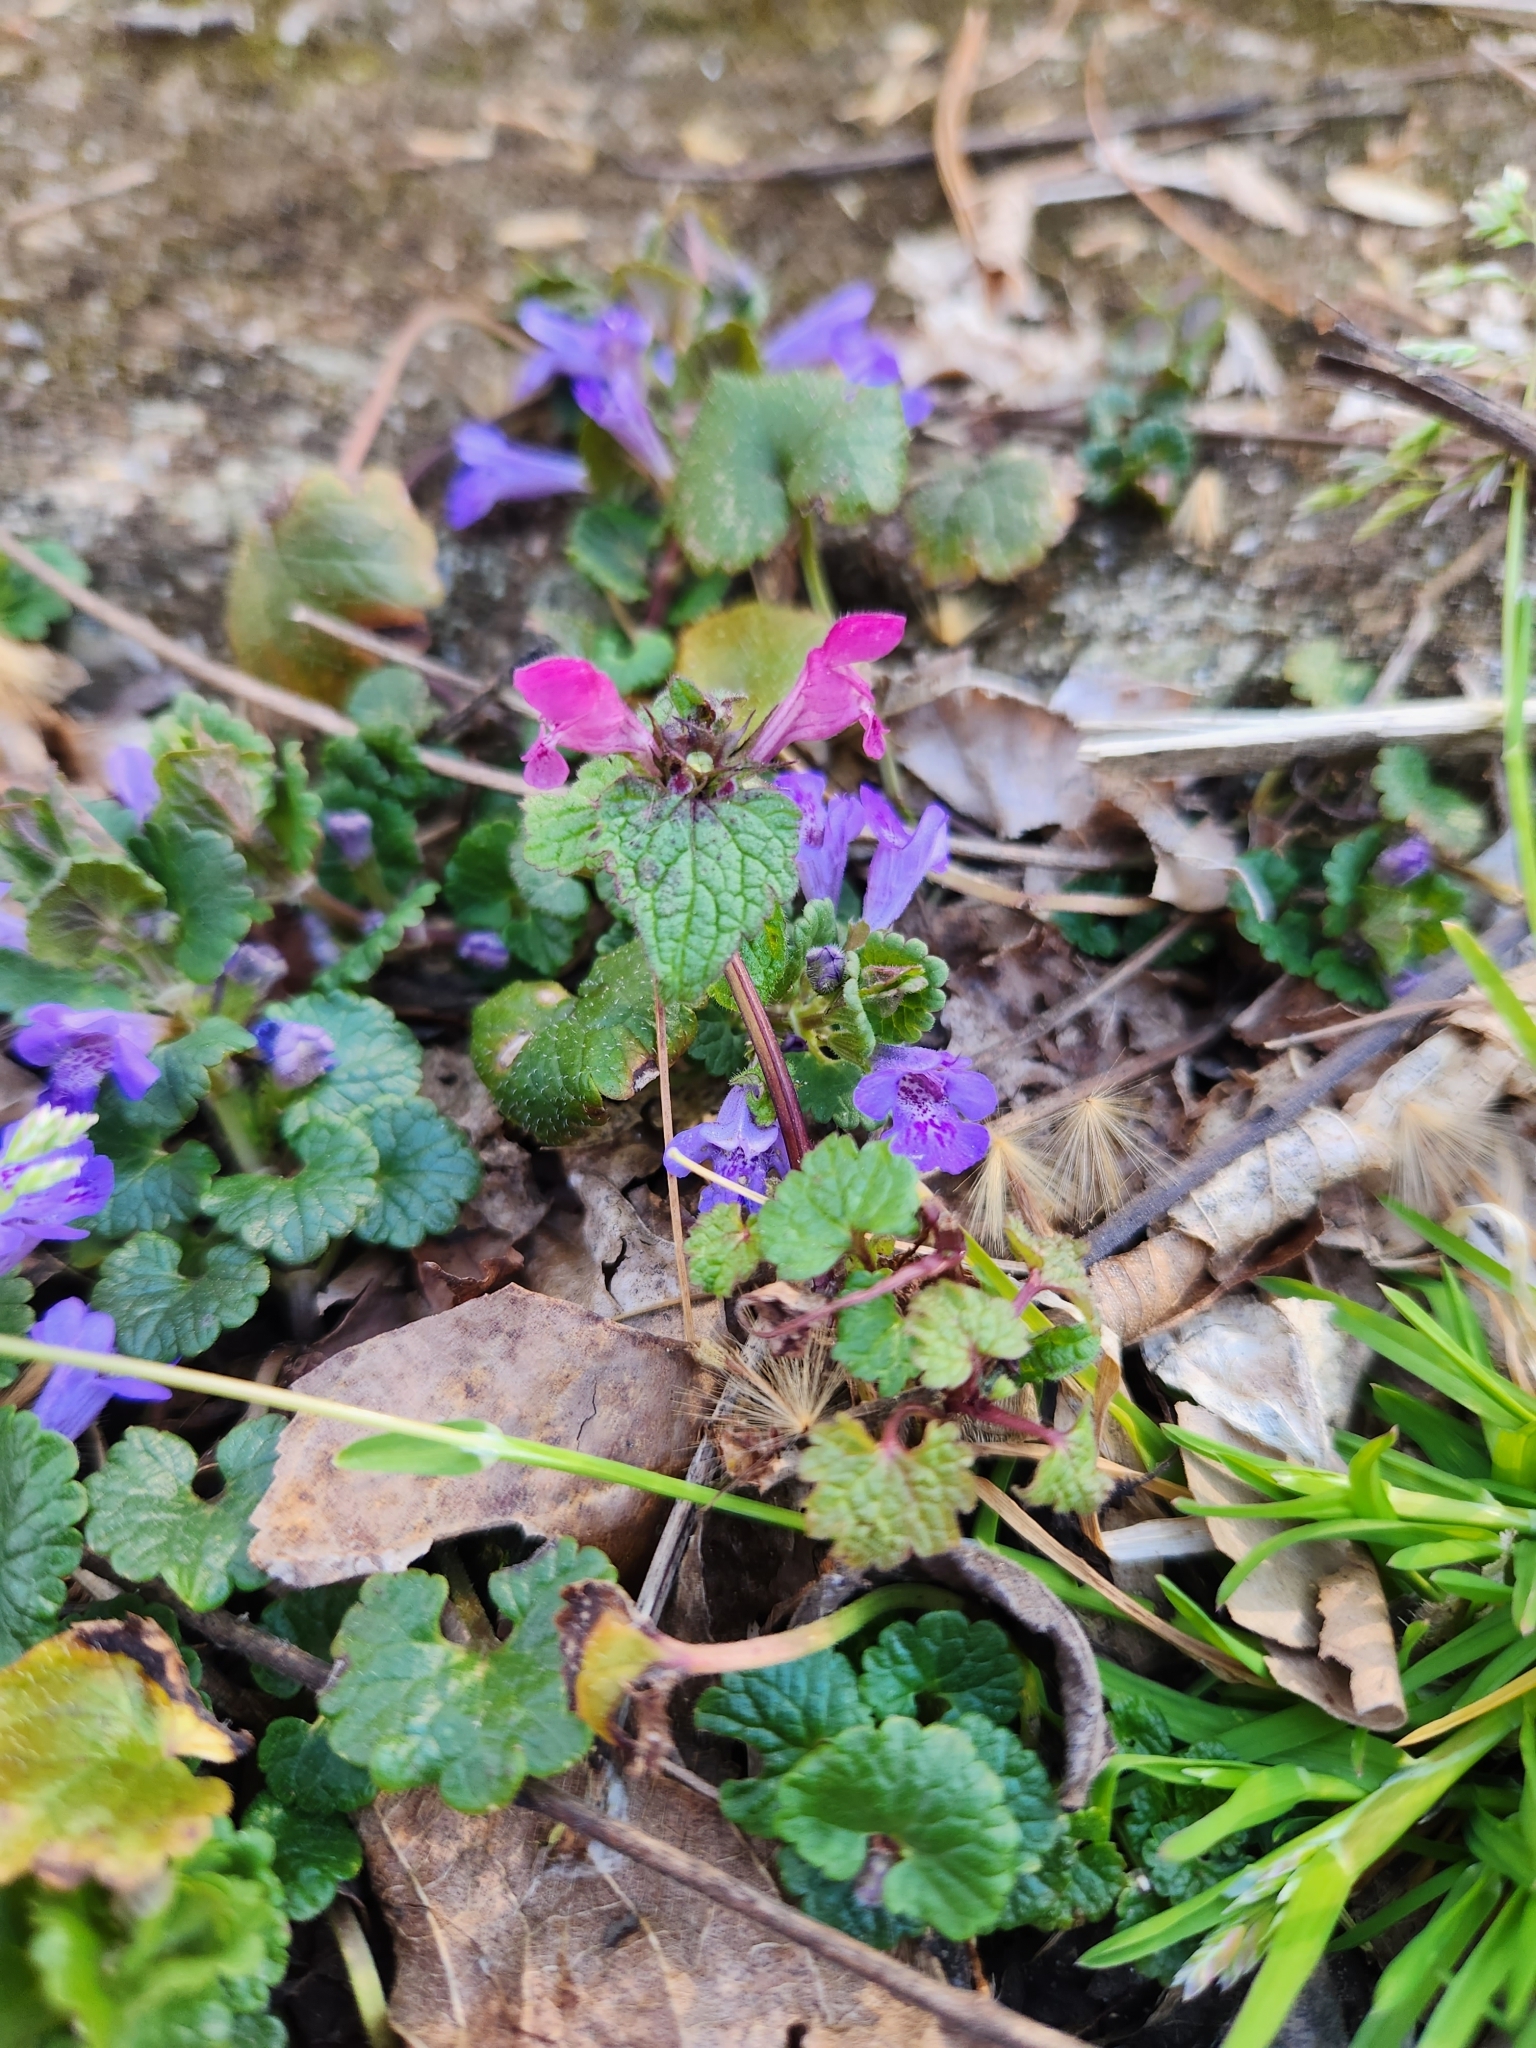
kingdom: Plantae
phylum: Tracheophyta
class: Magnoliopsida
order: Lamiales
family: Lamiaceae
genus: Lamium
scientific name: Lamium purpureum
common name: Red dead-nettle
